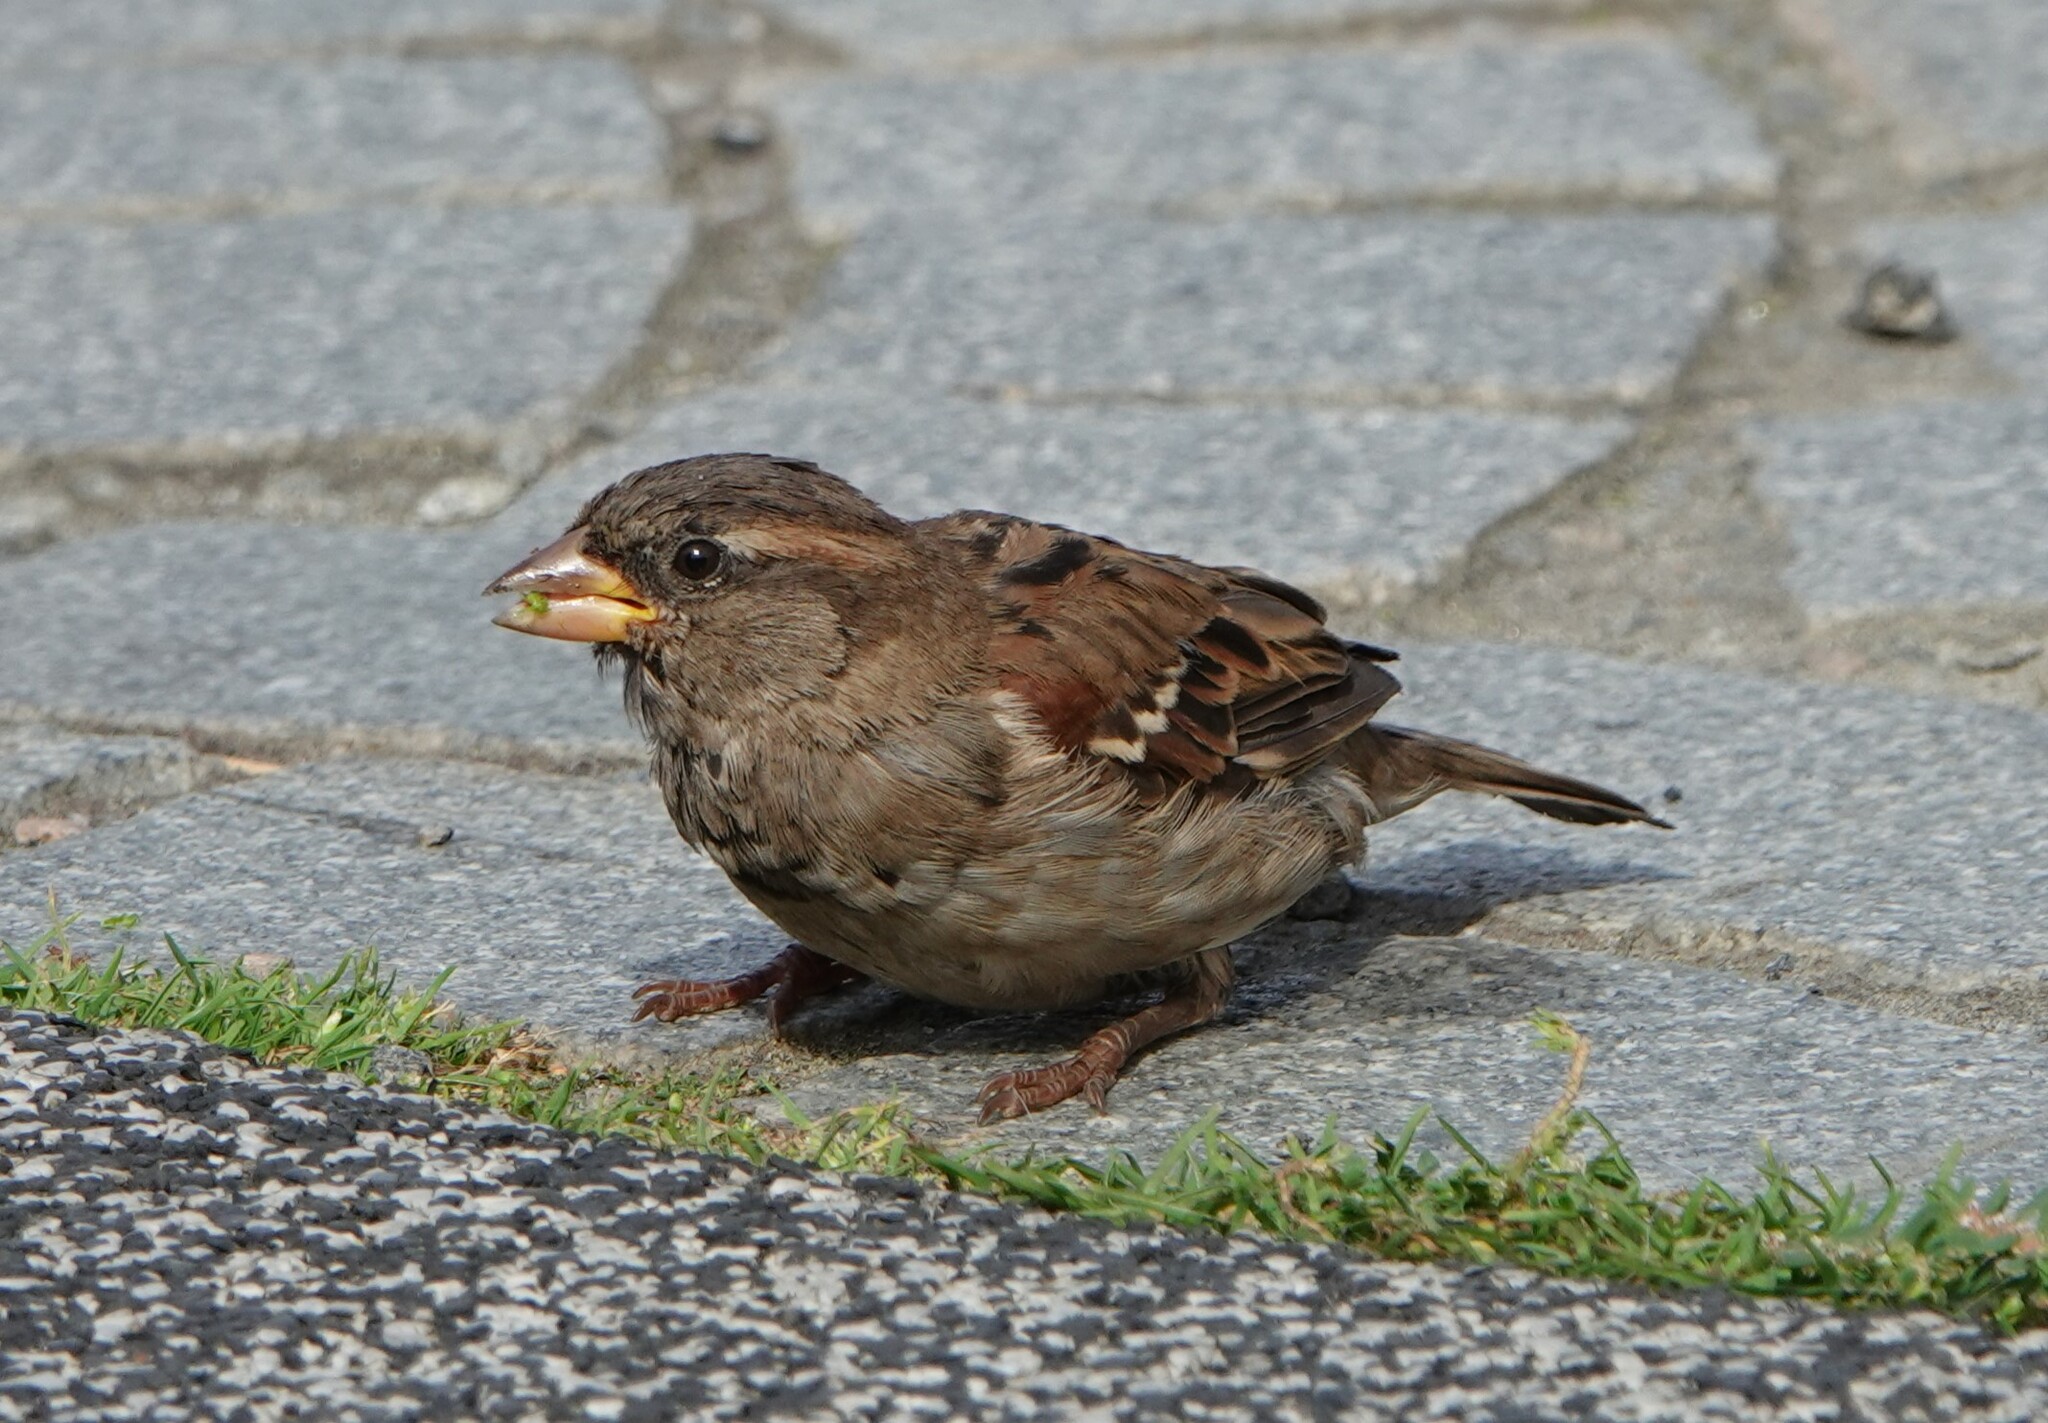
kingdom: Animalia
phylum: Chordata
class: Aves
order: Passeriformes
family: Passeridae
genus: Passer
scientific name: Passer domesticus
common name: House sparrow
